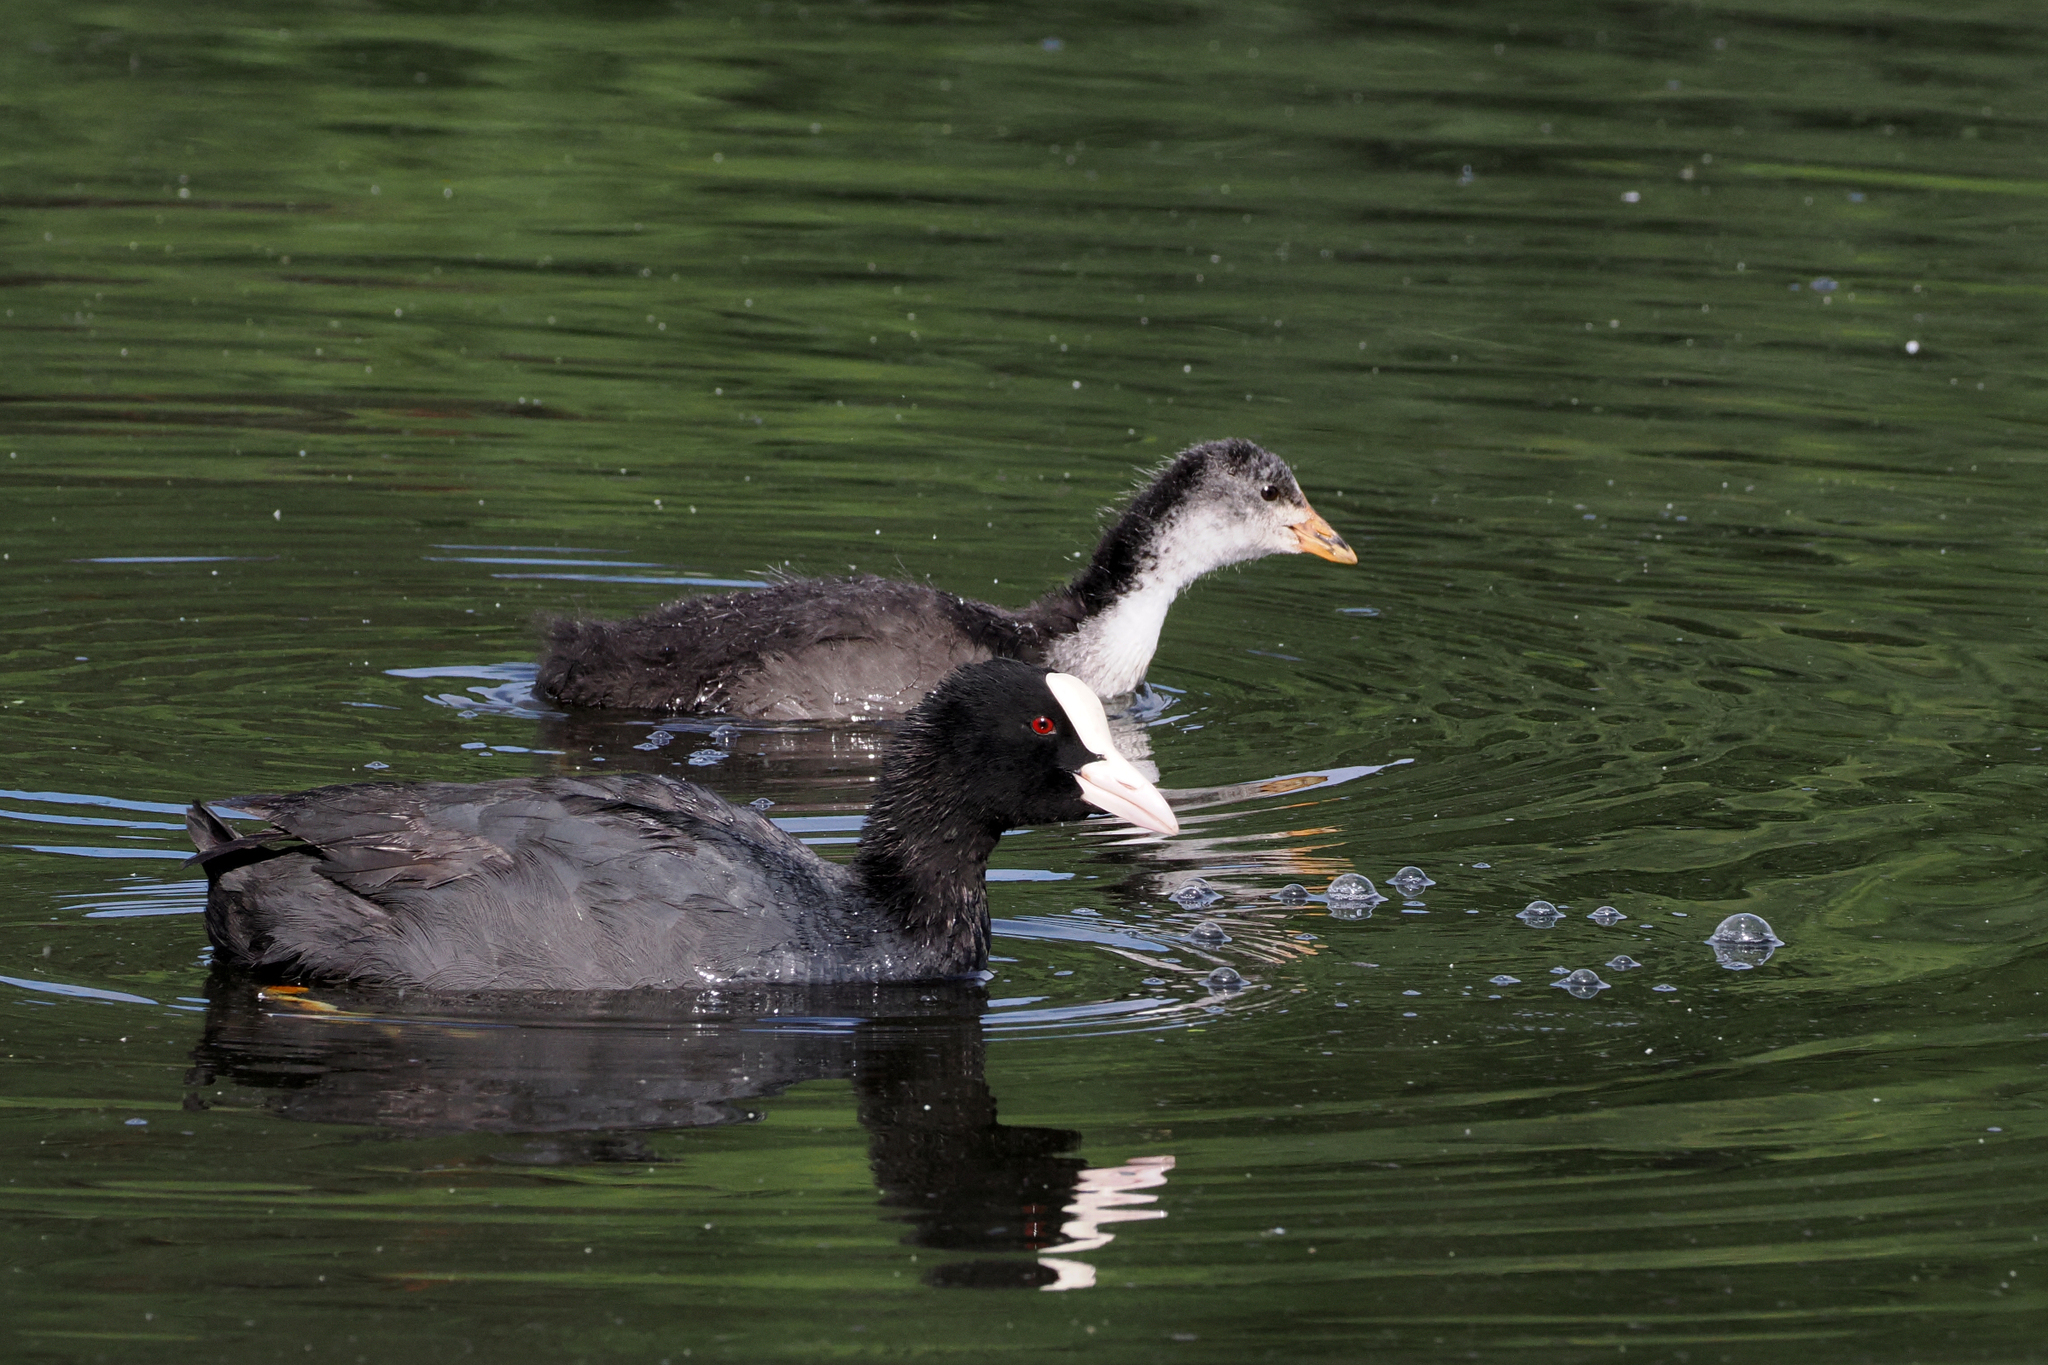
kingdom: Animalia
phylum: Chordata
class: Aves
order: Gruiformes
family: Rallidae
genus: Fulica
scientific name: Fulica atra
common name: Eurasian coot
